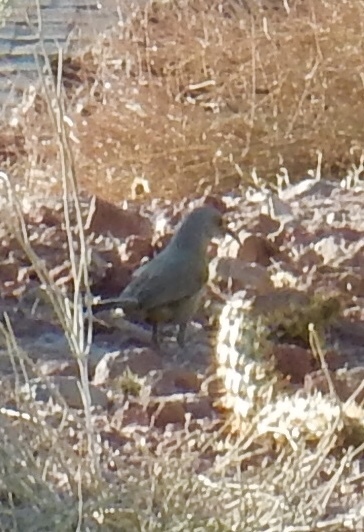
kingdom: Animalia
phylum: Chordata
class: Aves
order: Passeriformes
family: Mimidae
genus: Toxostoma
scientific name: Toxostoma curvirostre
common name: Curve-billed thrasher
